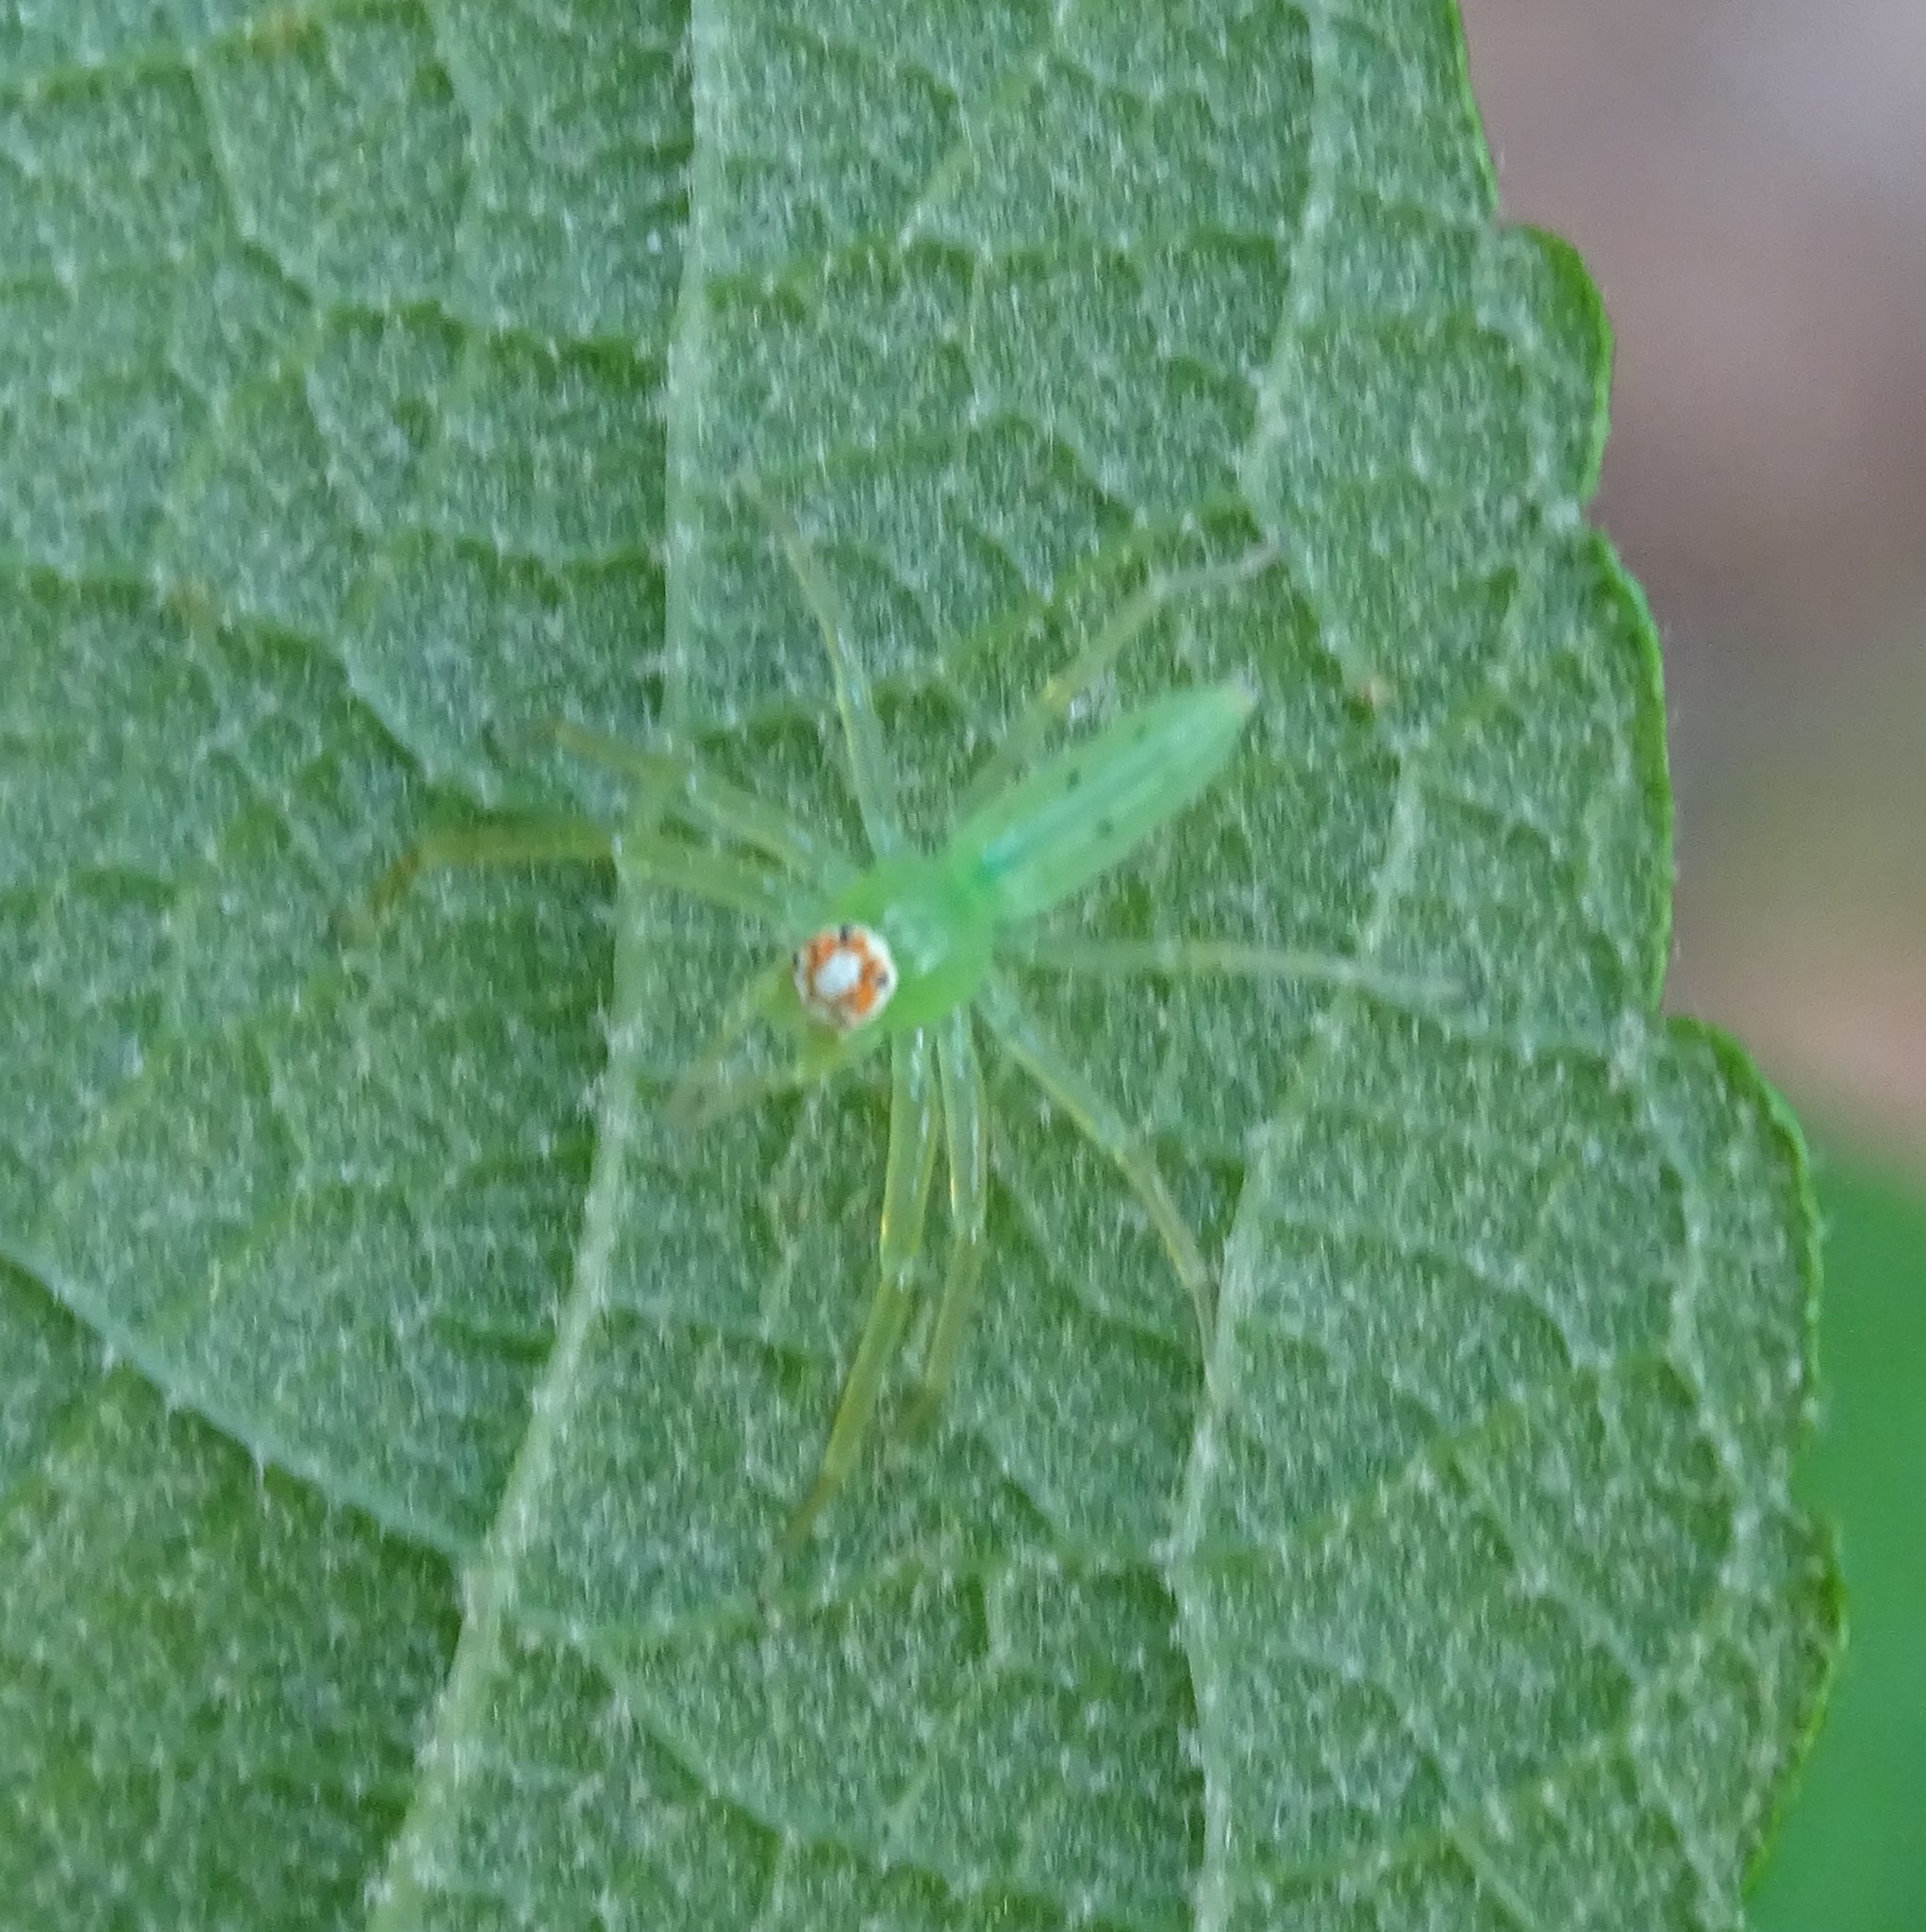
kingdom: Animalia
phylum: Arthropoda
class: Arachnida
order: Araneae
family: Salticidae
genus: Lyssomanes
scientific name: Lyssomanes viridis
